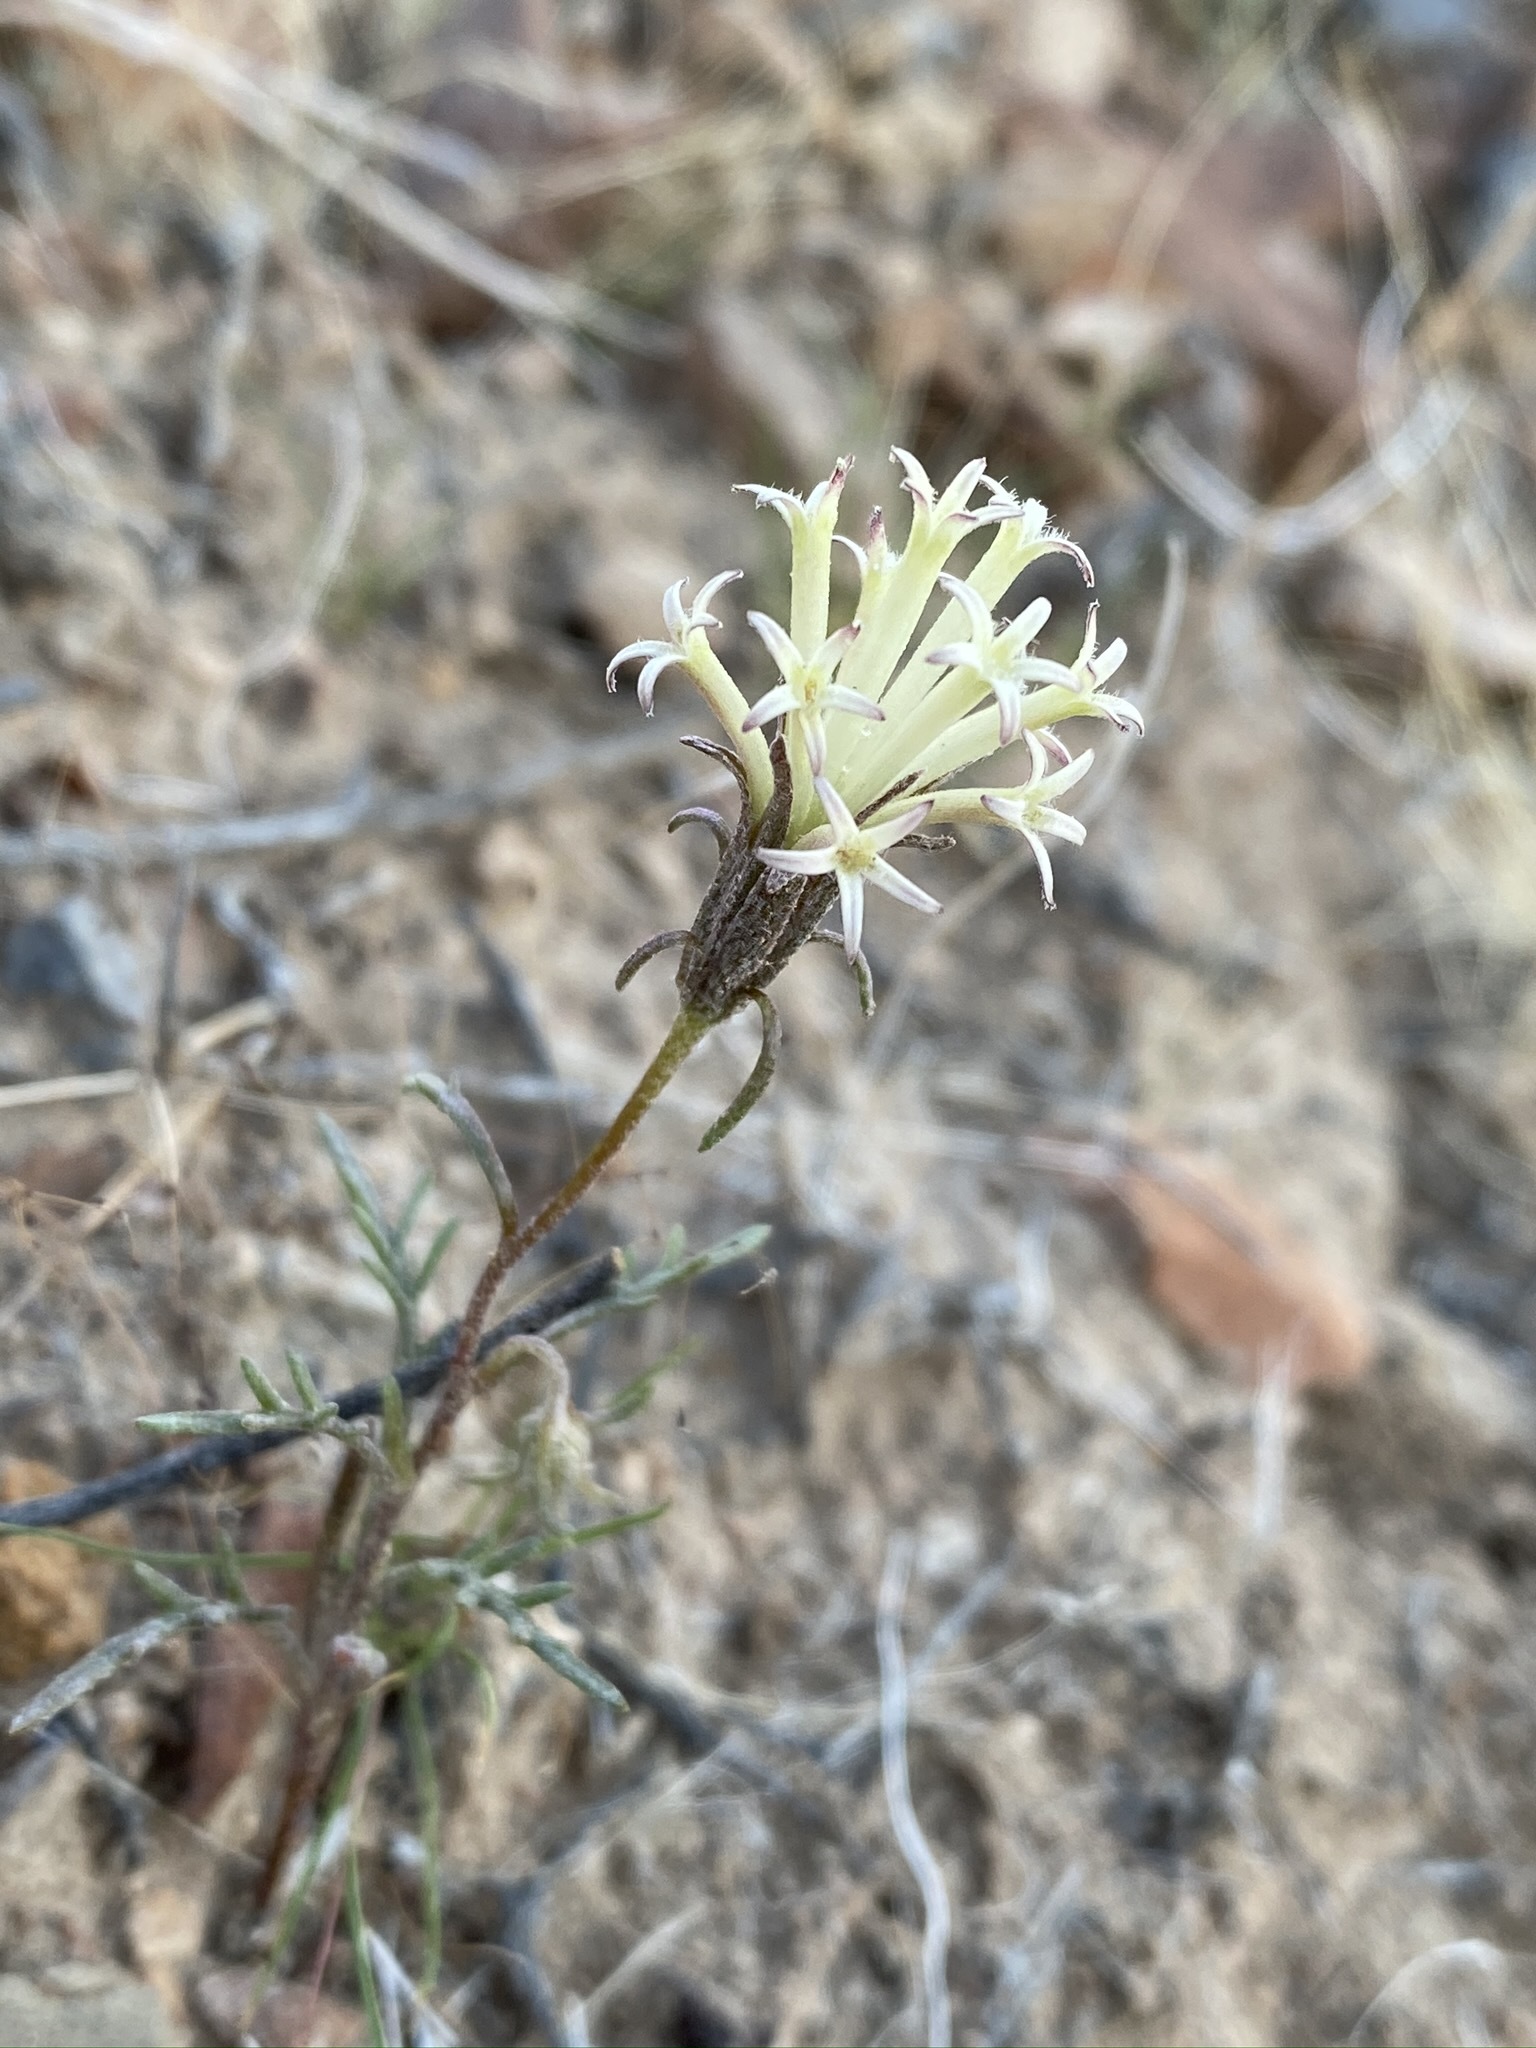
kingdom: Plantae
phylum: Tracheophyta
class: Magnoliopsida
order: Asterales
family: Asteraceae
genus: Chaenactis
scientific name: Chaenactis macrantha
